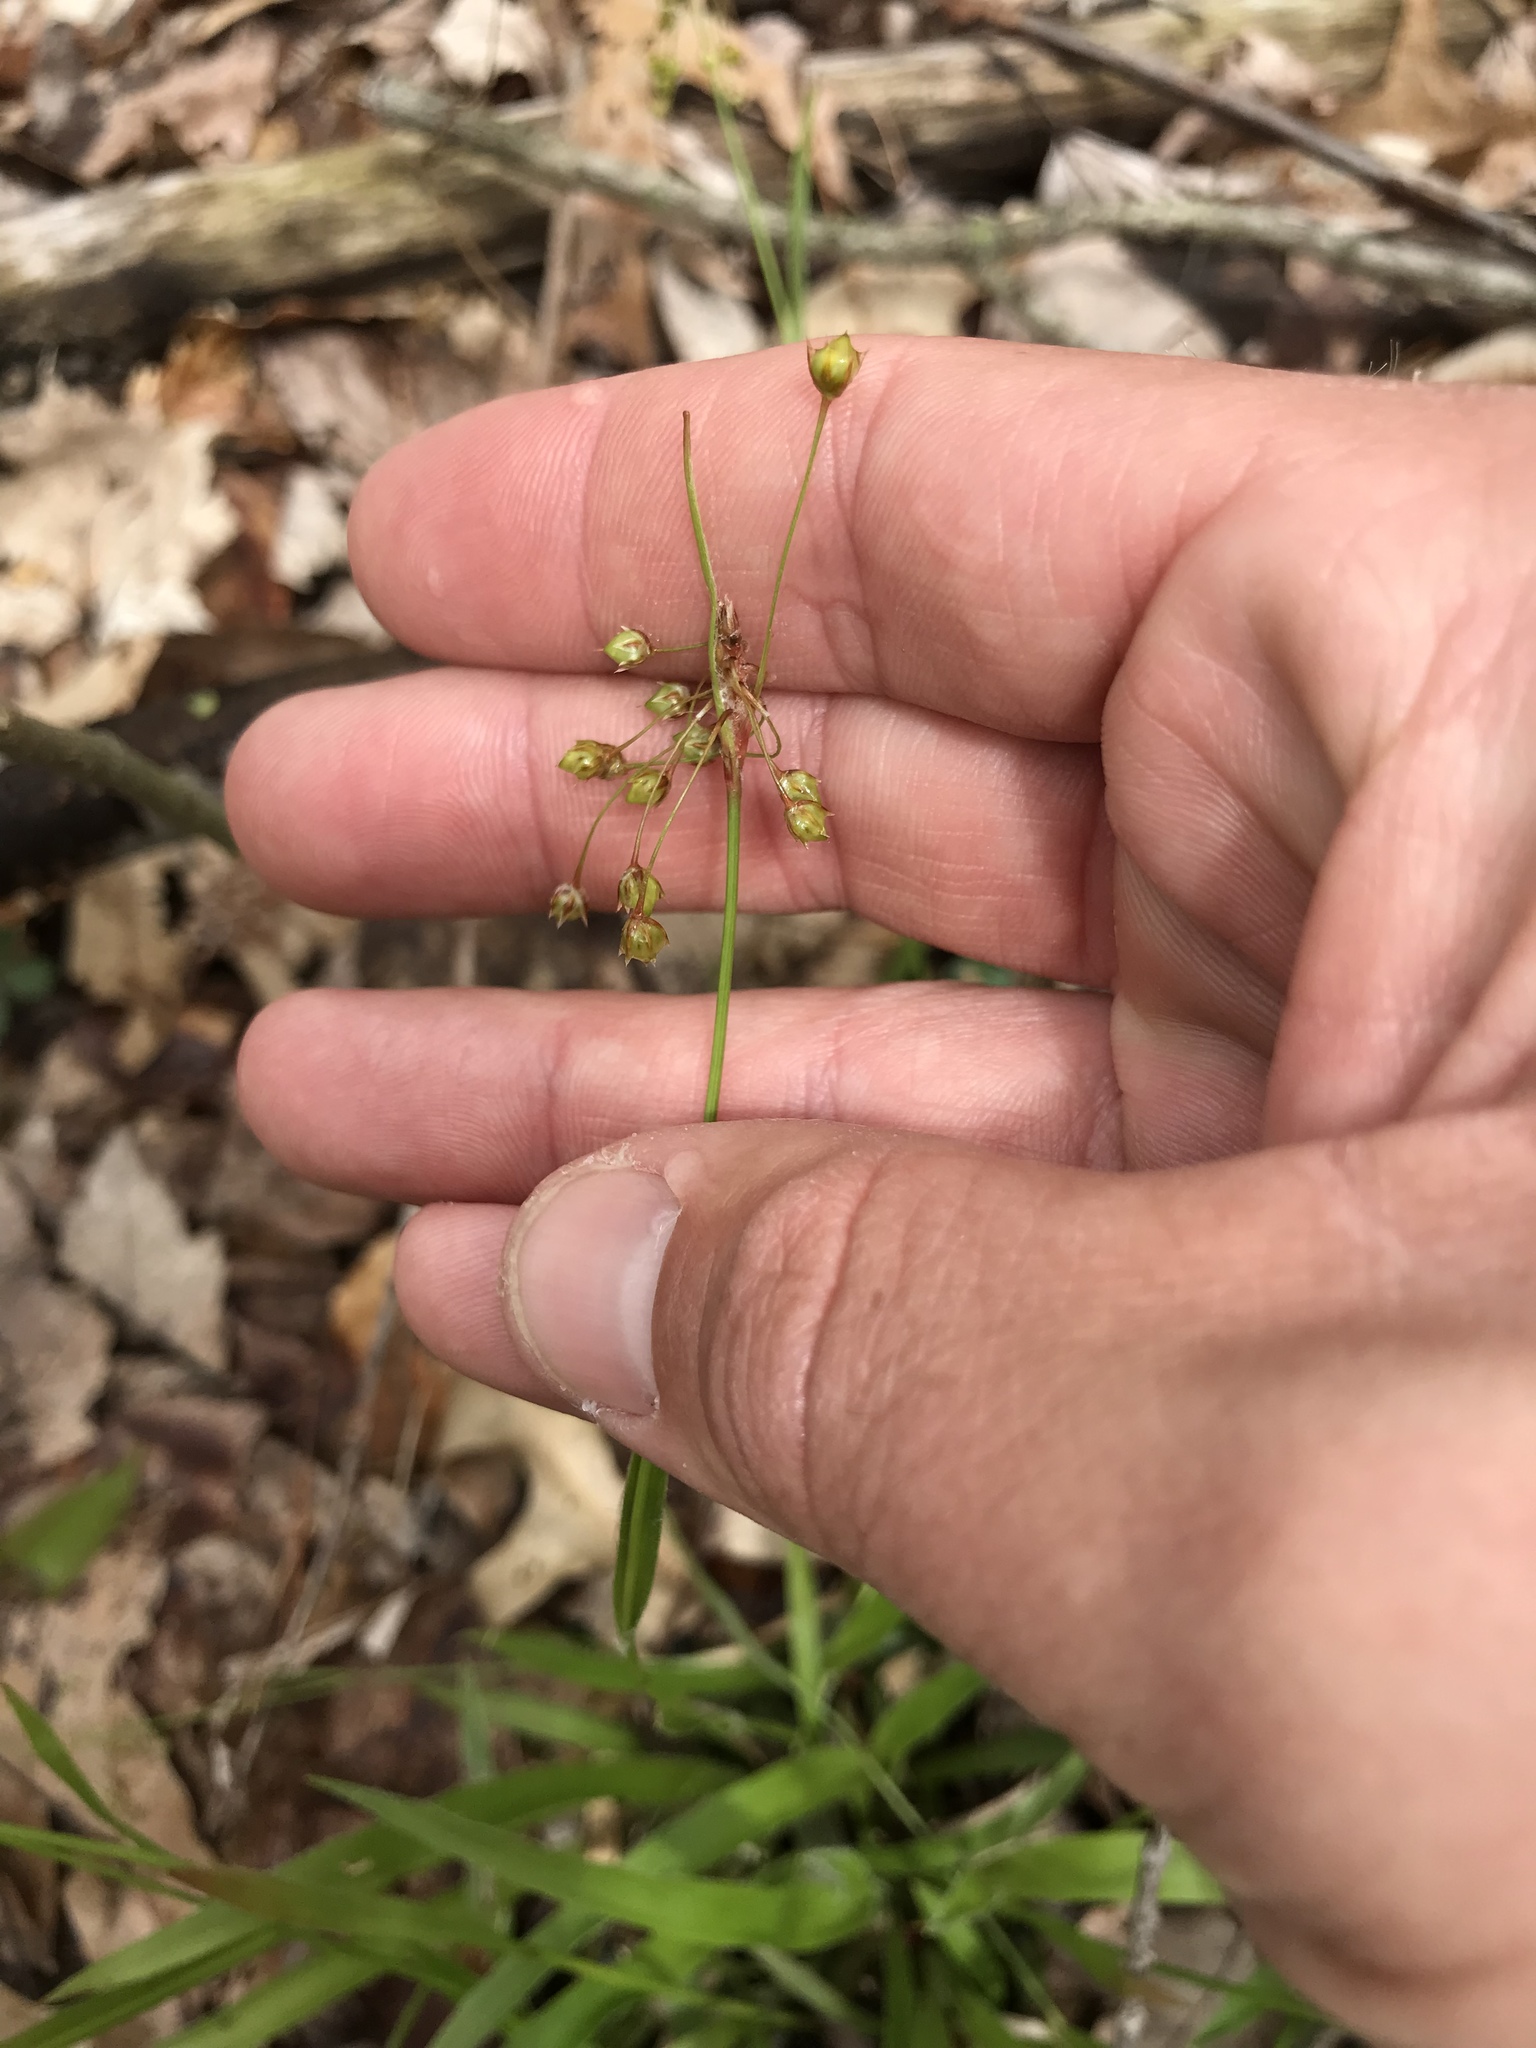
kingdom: Plantae
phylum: Tracheophyta
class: Liliopsida
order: Poales
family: Juncaceae
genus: Luzula
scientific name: Luzula acuminata
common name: Hairy woodrush
